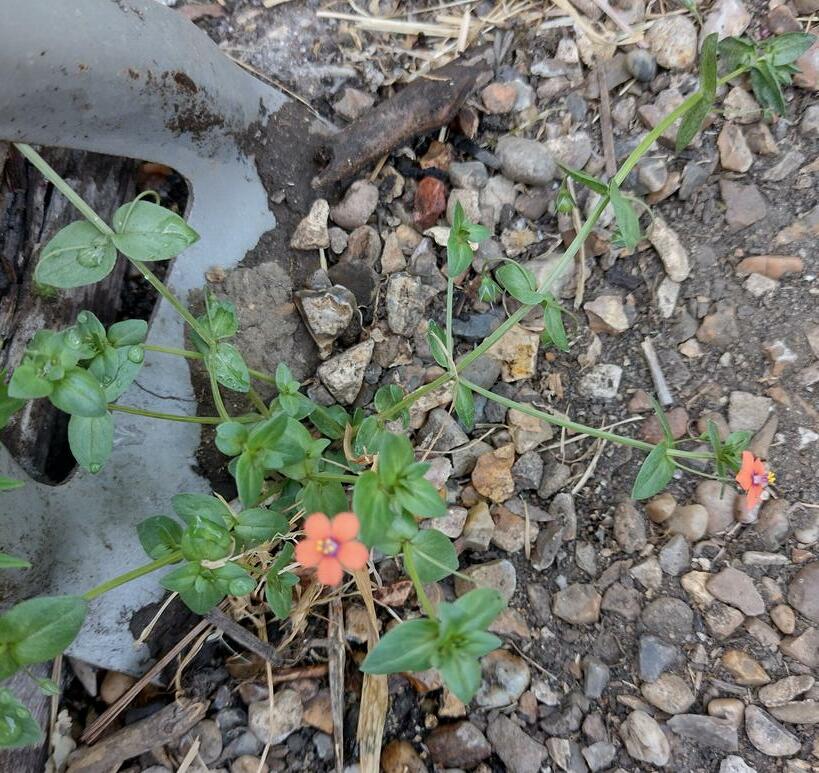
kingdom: Plantae
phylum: Tracheophyta
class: Magnoliopsida
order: Ericales
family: Primulaceae
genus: Lysimachia
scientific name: Lysimachia arvensis
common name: Scarlet pimpernel
